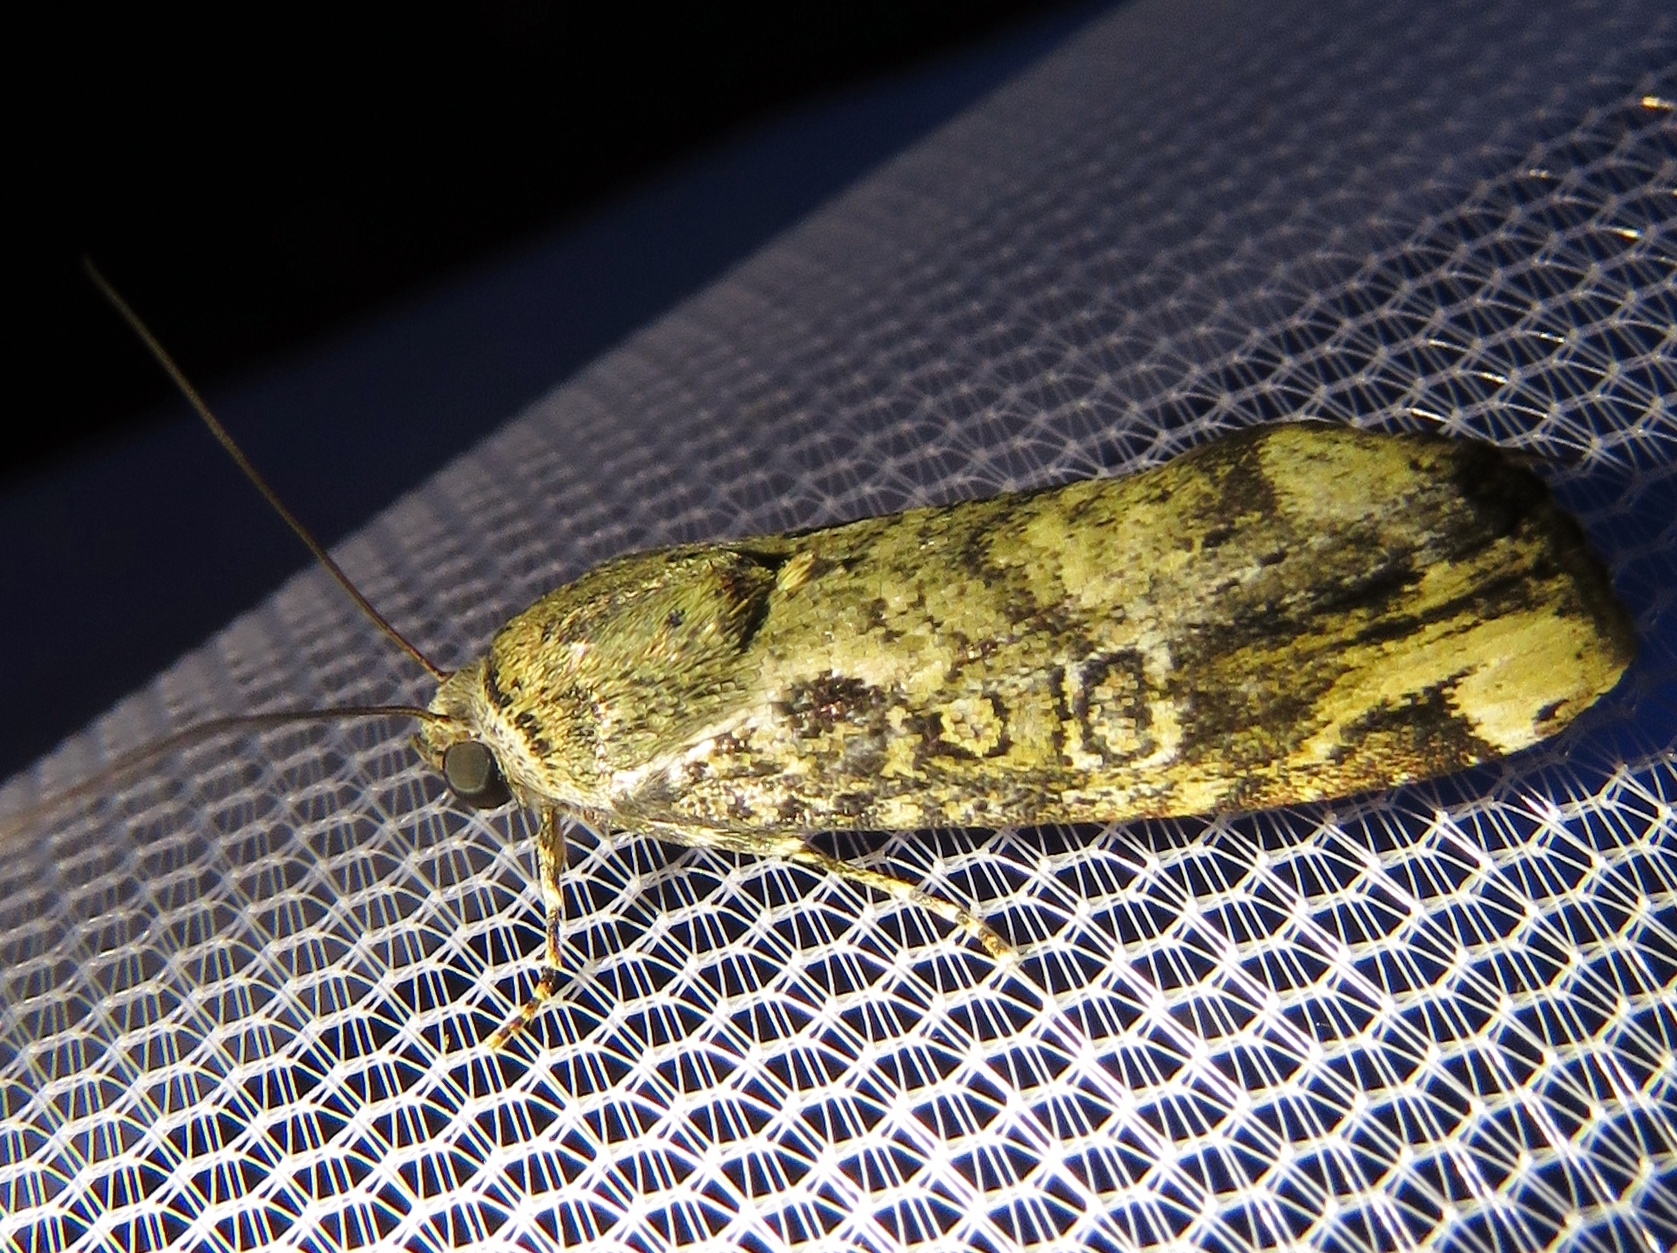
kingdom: Animalia
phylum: Arthropoda
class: Insecta
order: Lepidoptera
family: Noctuidae
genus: Magusa
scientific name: Magusa divaricata
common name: Orb narrow-winged moth
